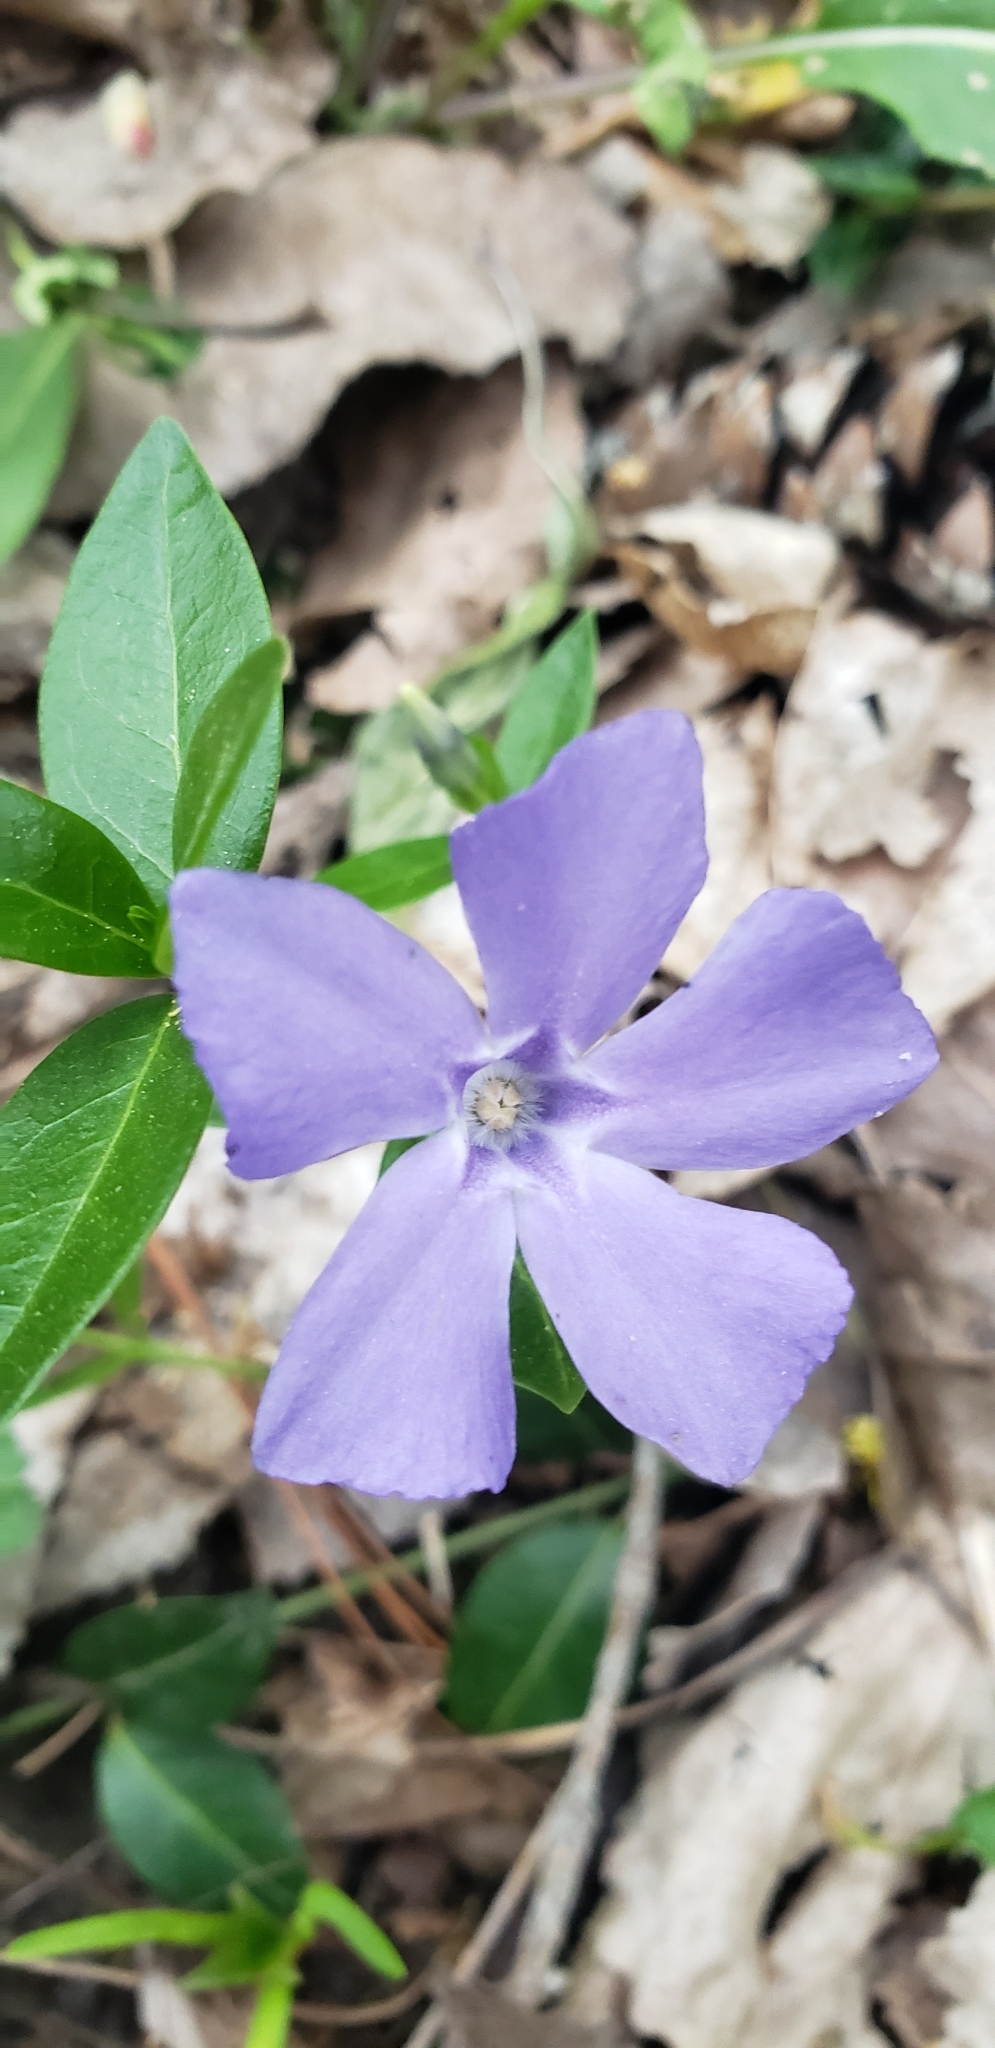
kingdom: Plantae
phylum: Tracheophyta
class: Magnoliopsida
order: Gentianales
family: Apocynaceae
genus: Vinca
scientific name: Vinca minor
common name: Lesser periwinkle
